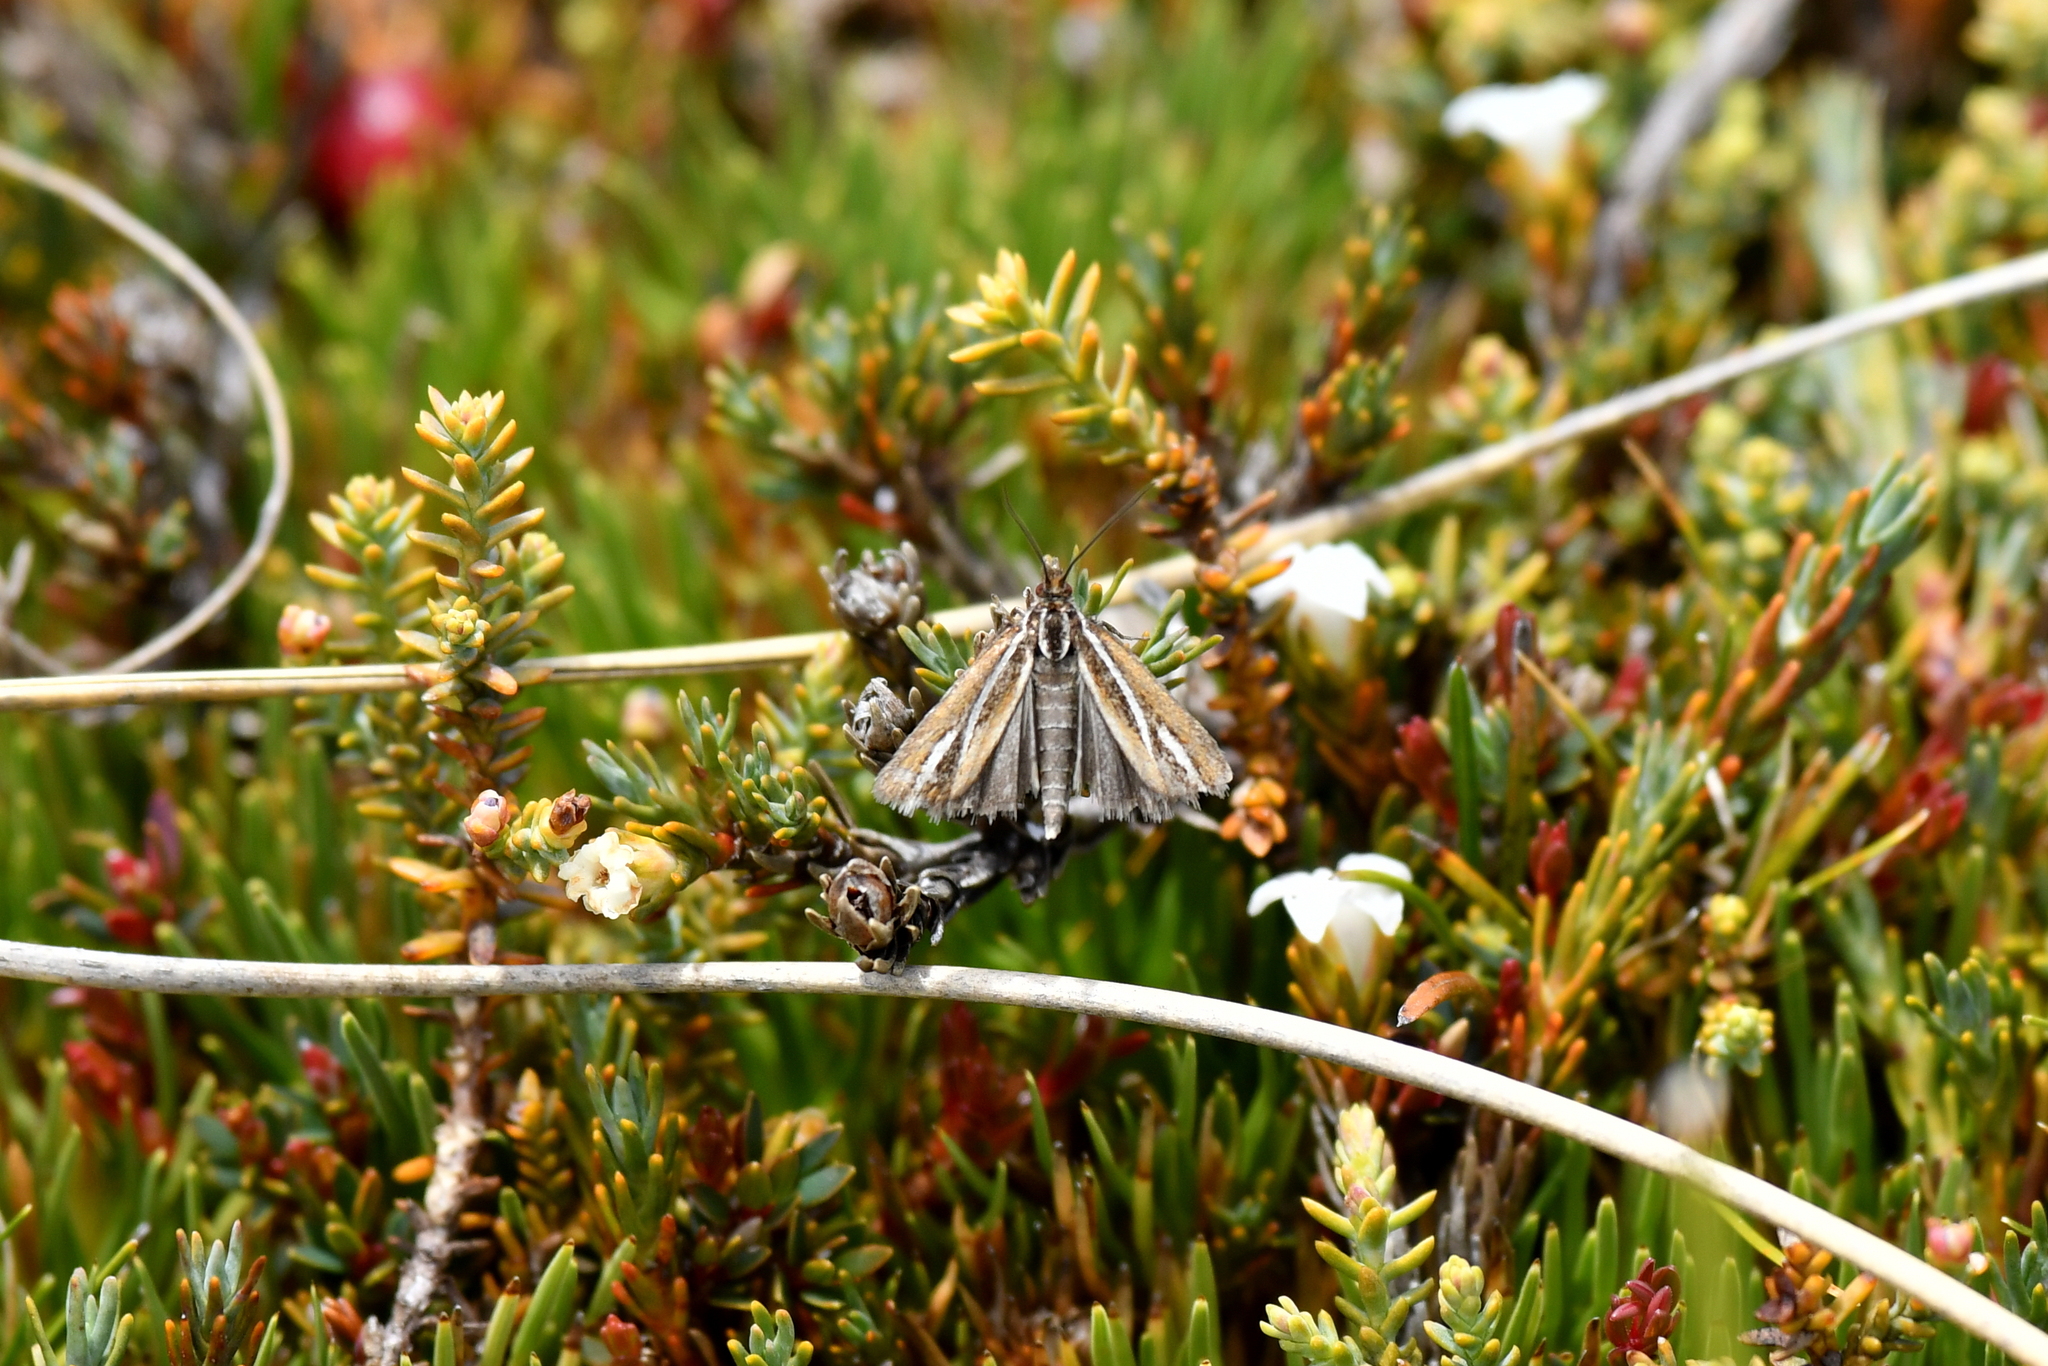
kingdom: Animalia
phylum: Arthropoda
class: Insecta
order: Lepidoptera
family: Crambidae
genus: Orocrambus
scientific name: Orocrambus thymiastes
